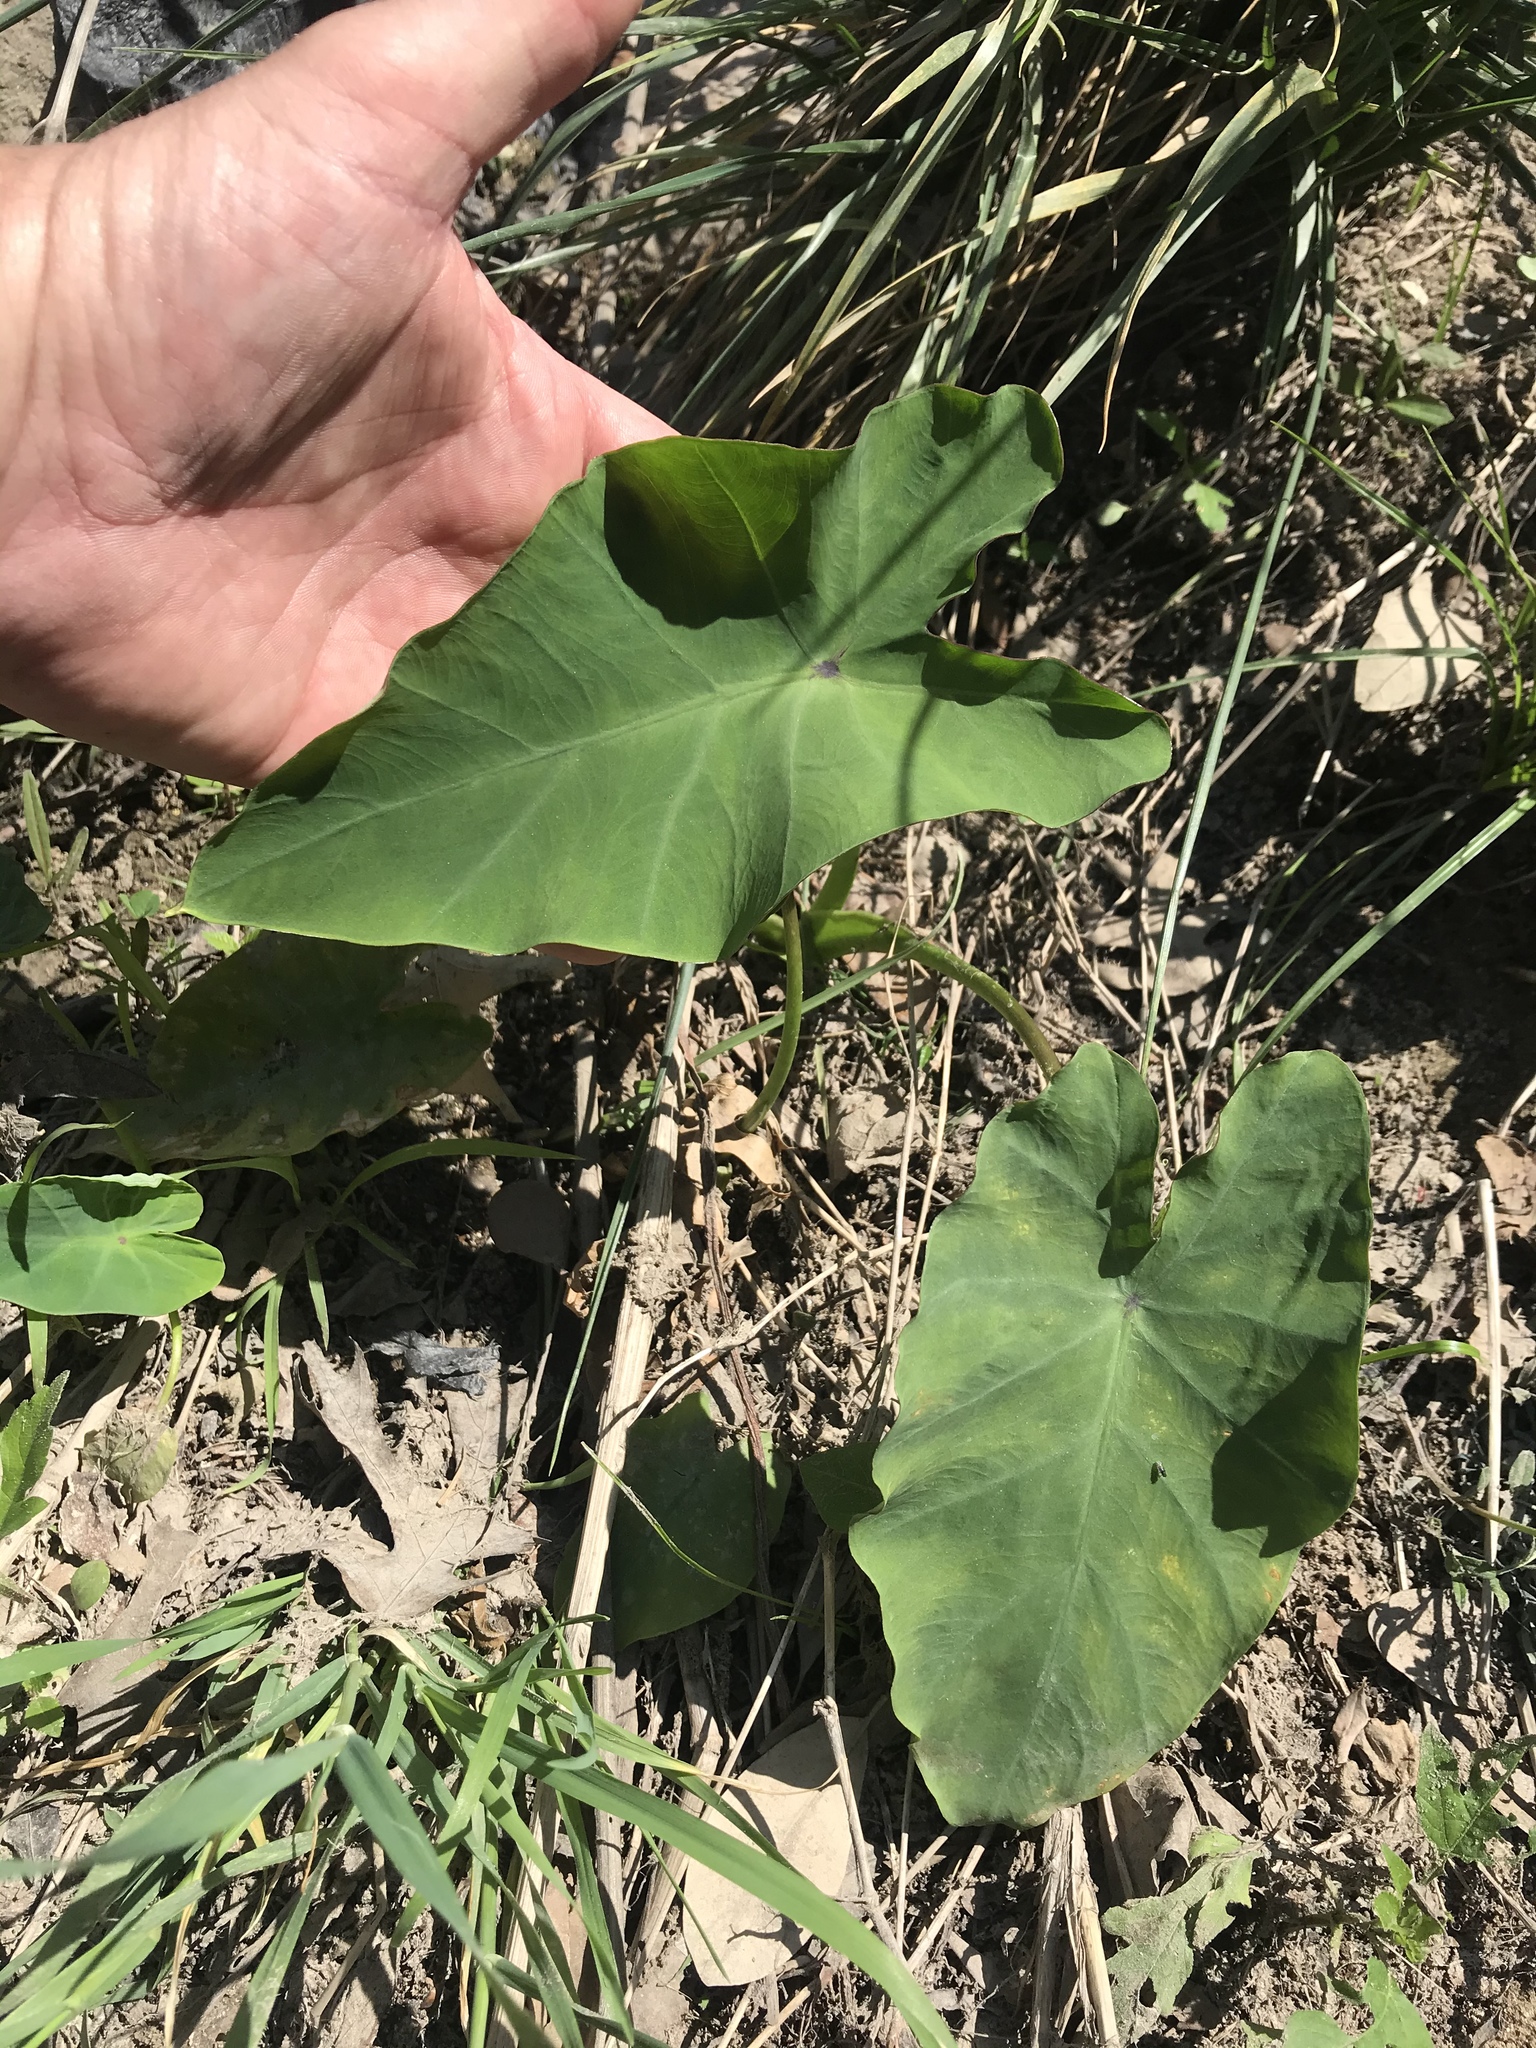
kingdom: Plantae
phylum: Tracheophyta
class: Liliopsida
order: Alismatales
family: Araceae
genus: Colocasia
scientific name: Colocasia esculenta
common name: Taro
